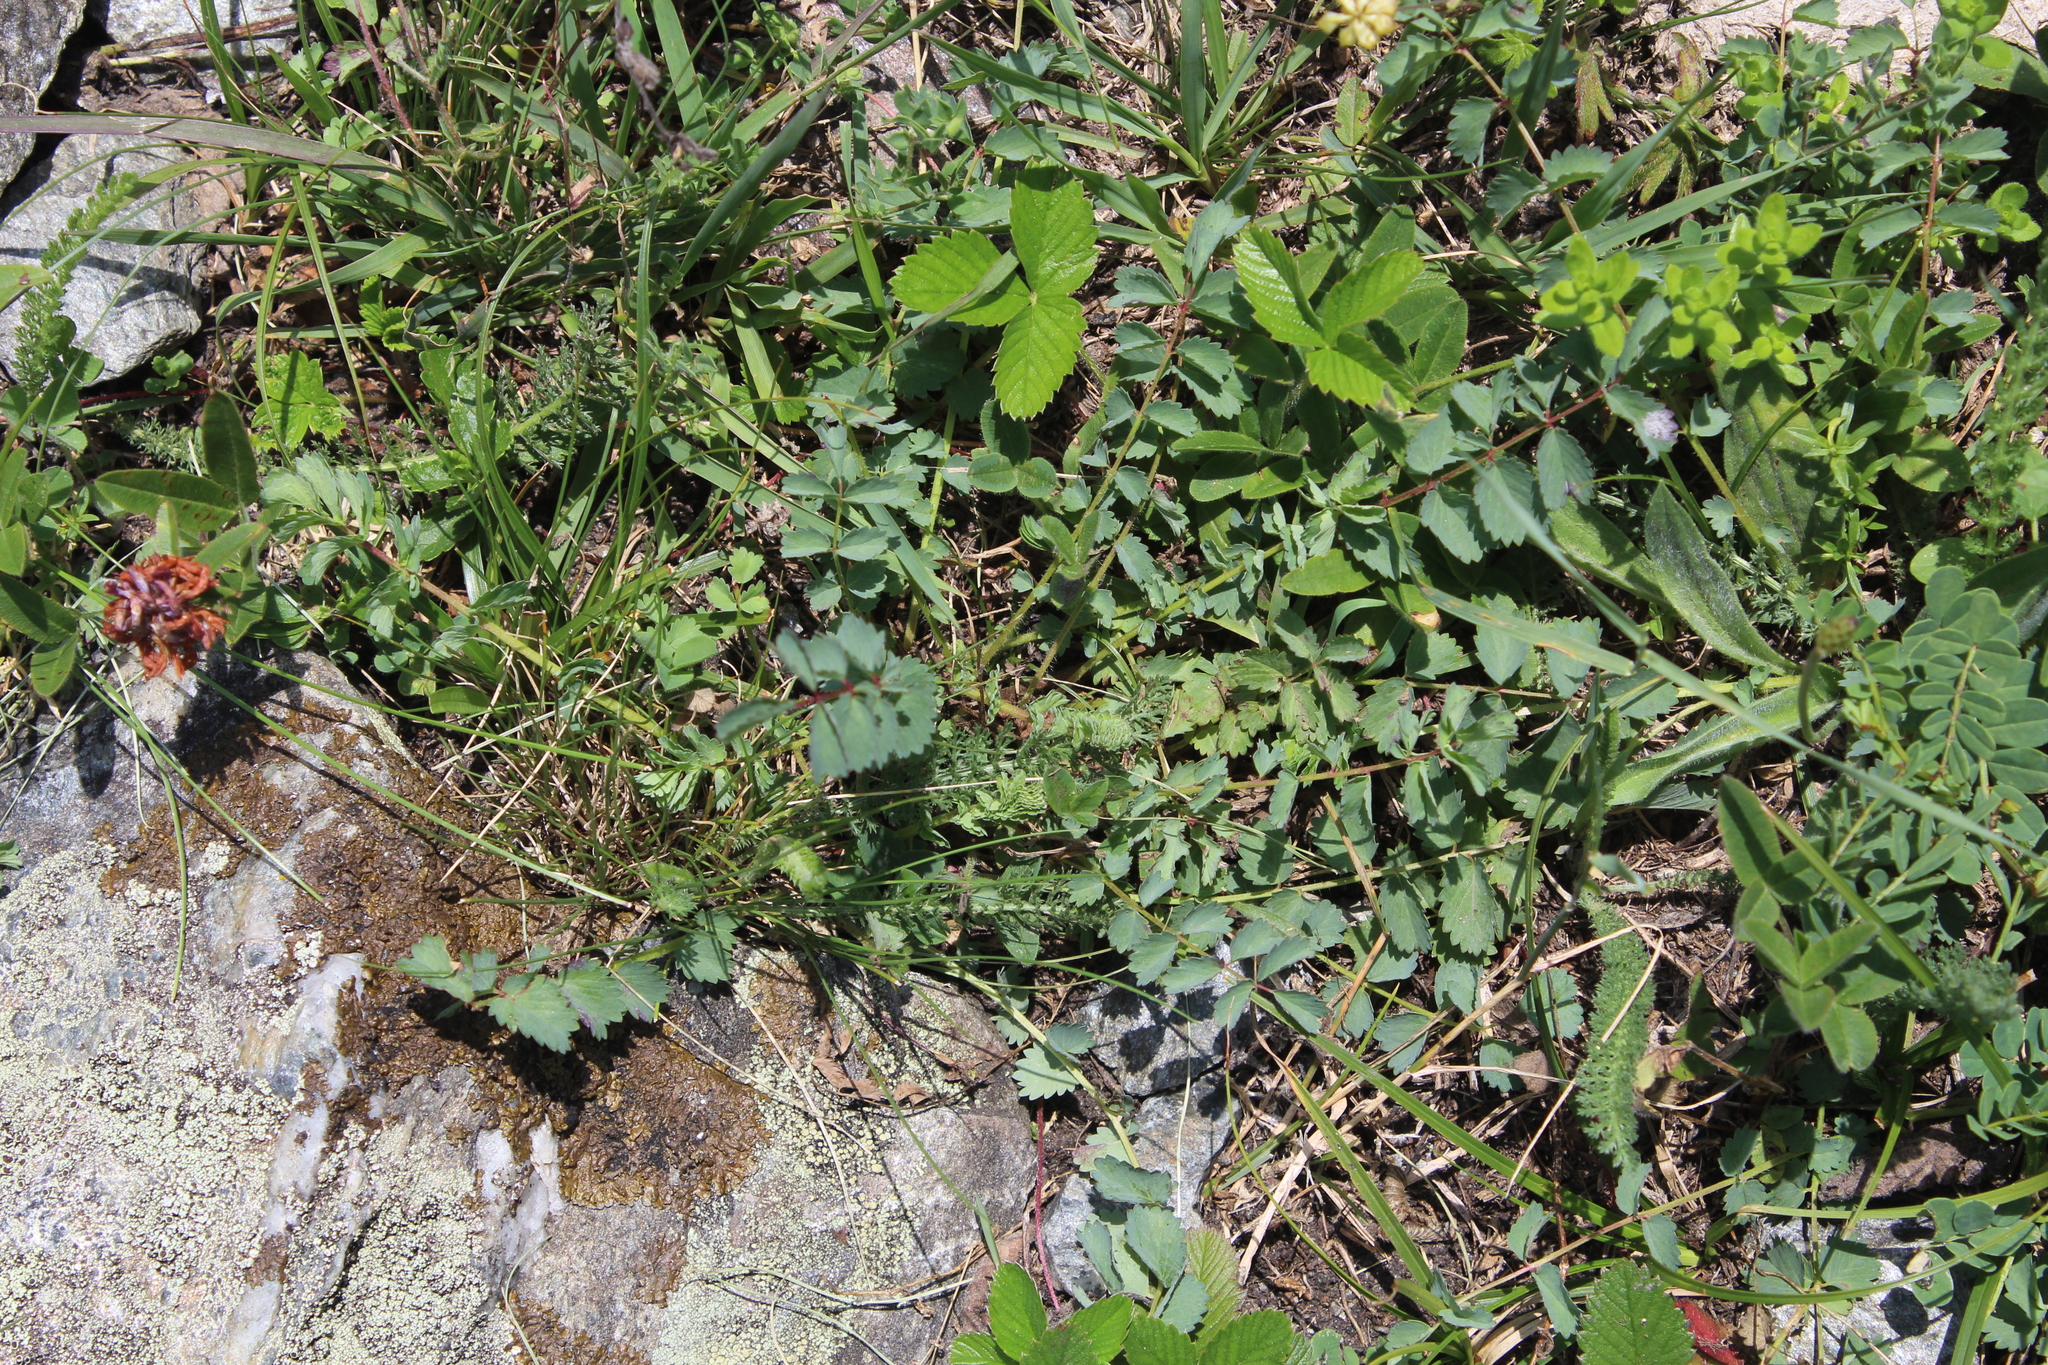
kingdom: Plantae
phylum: Tracheophyta
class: Magnoliopsida
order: Rosales
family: Rosaceae
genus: Poterium
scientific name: Poterium sanguisorba
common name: Salad burnet
